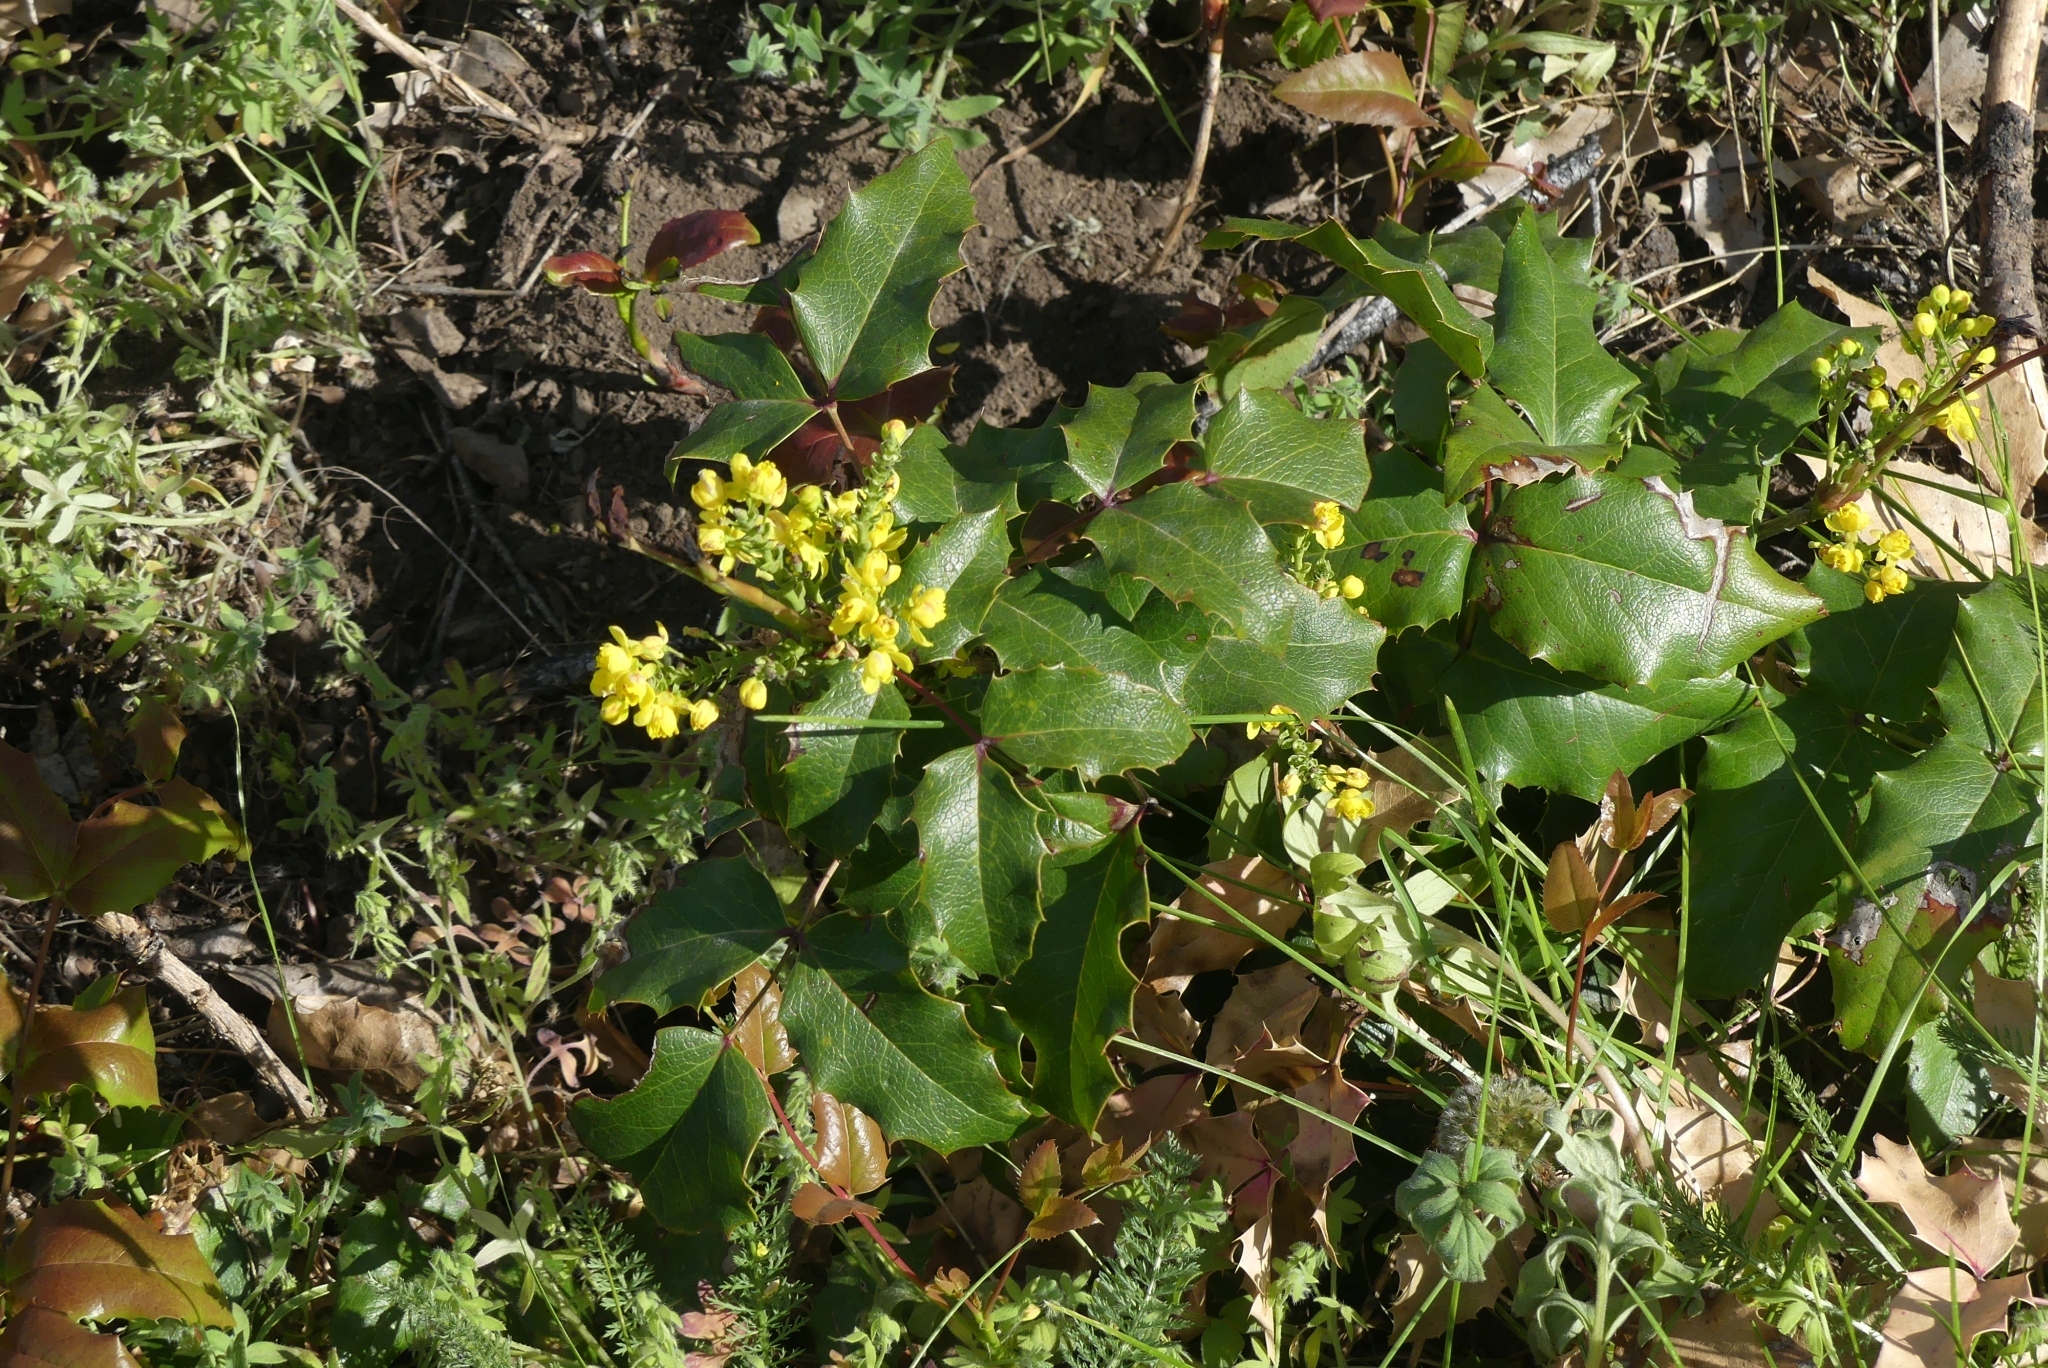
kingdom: Plantae
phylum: Tracheophyta
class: Magnoliopsida
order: Ranunculales
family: Berberidaceae
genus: Mahonia
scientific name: Mahonia aquifolium
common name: Oregon-grape
